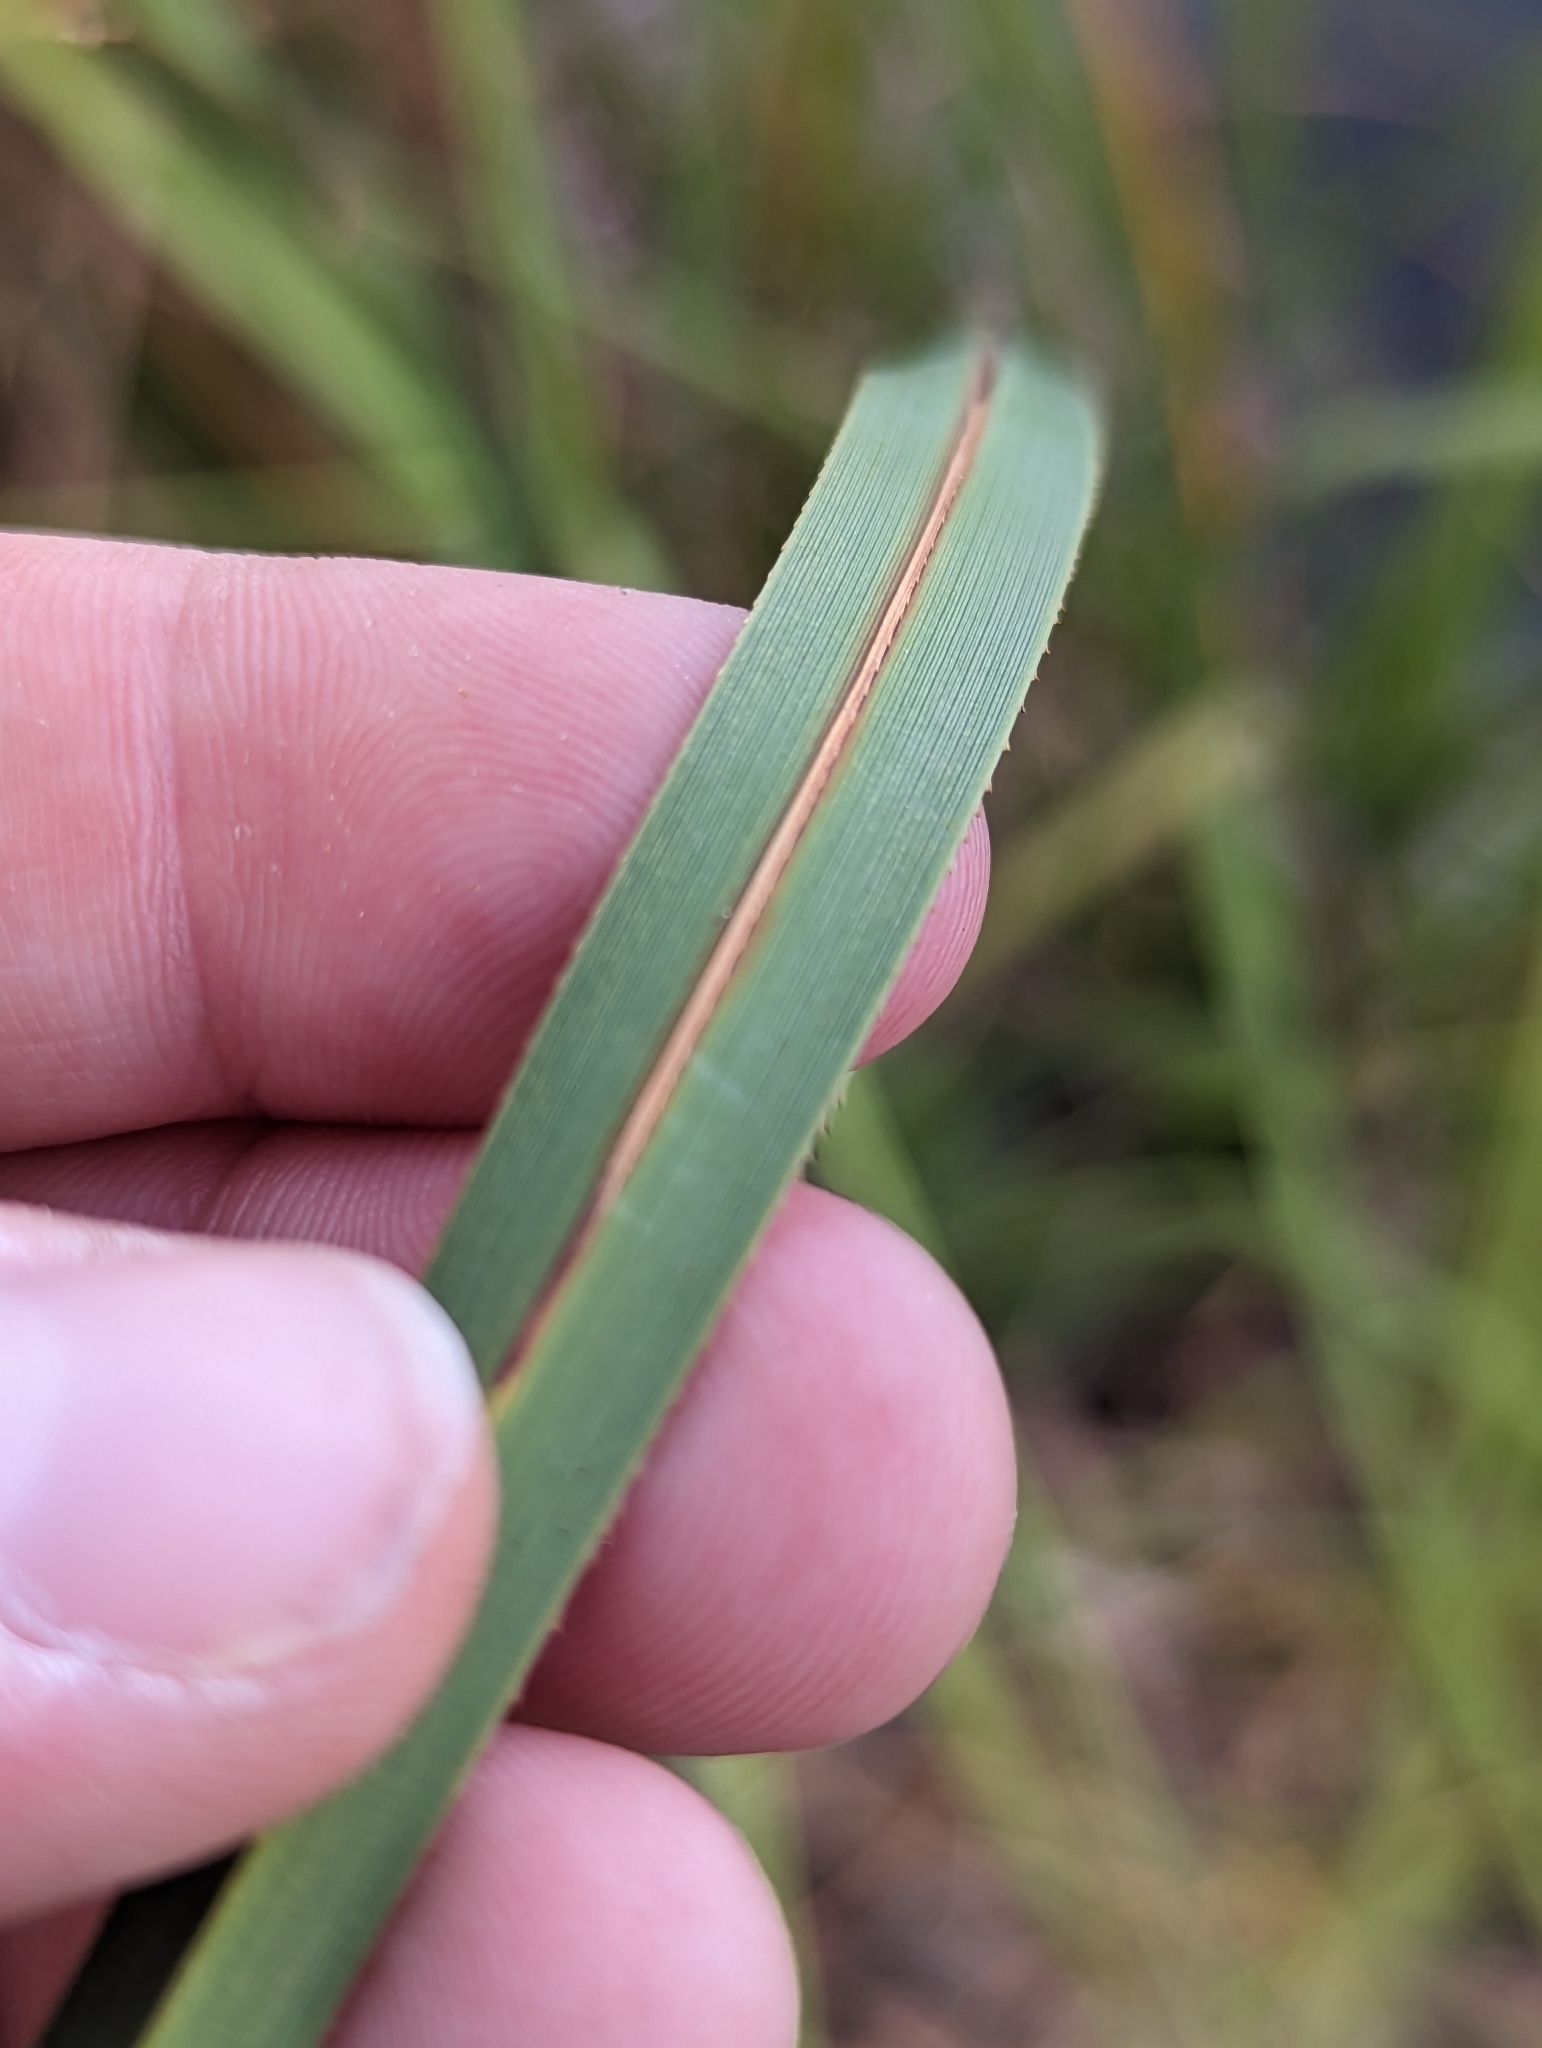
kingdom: Plantae
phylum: Tracheophyta
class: Liliopsida
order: Poales
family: Cyperaceae
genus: Cladium
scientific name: Cladium mariscus
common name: Great fen-sedge
